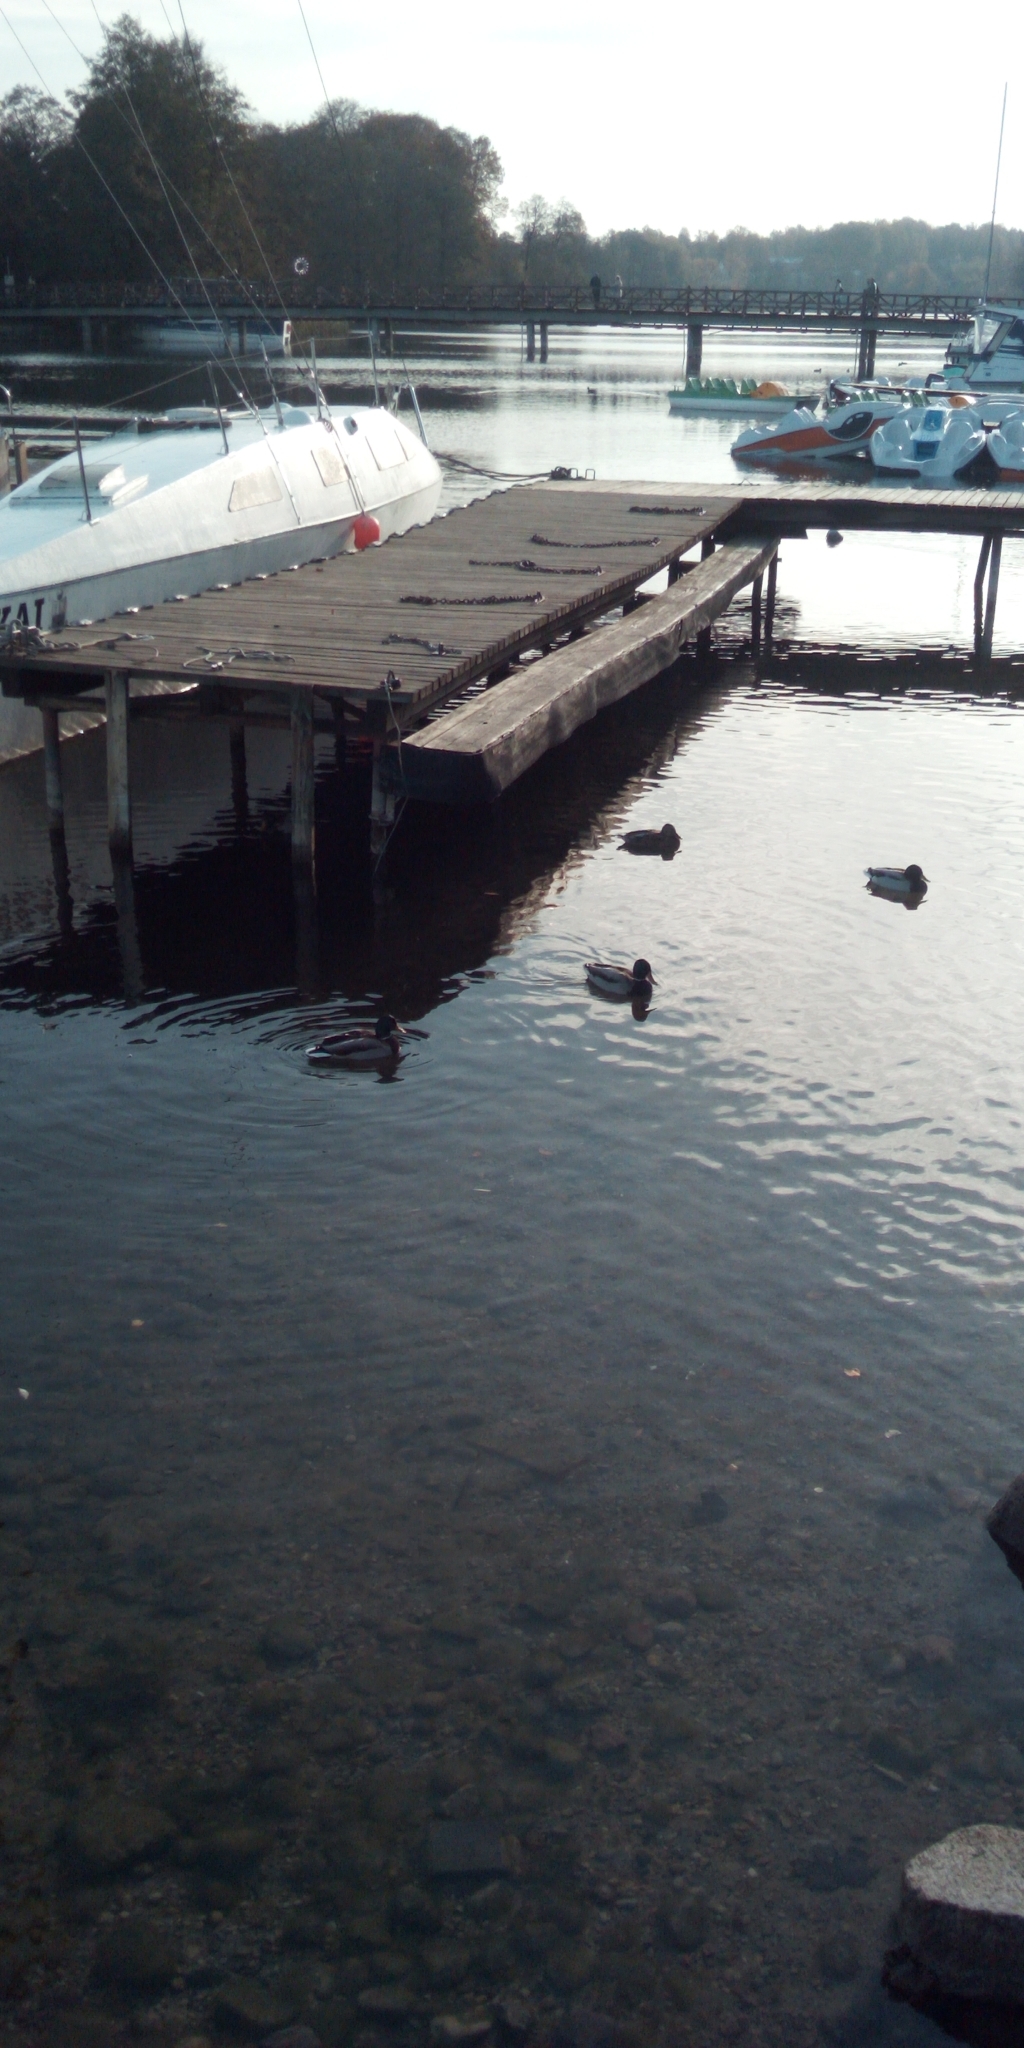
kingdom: Animalia
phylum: Chordata
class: Aves
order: Anseriformes
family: Anatidae
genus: Anas
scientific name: Anas platyrhynchos
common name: Mallard
